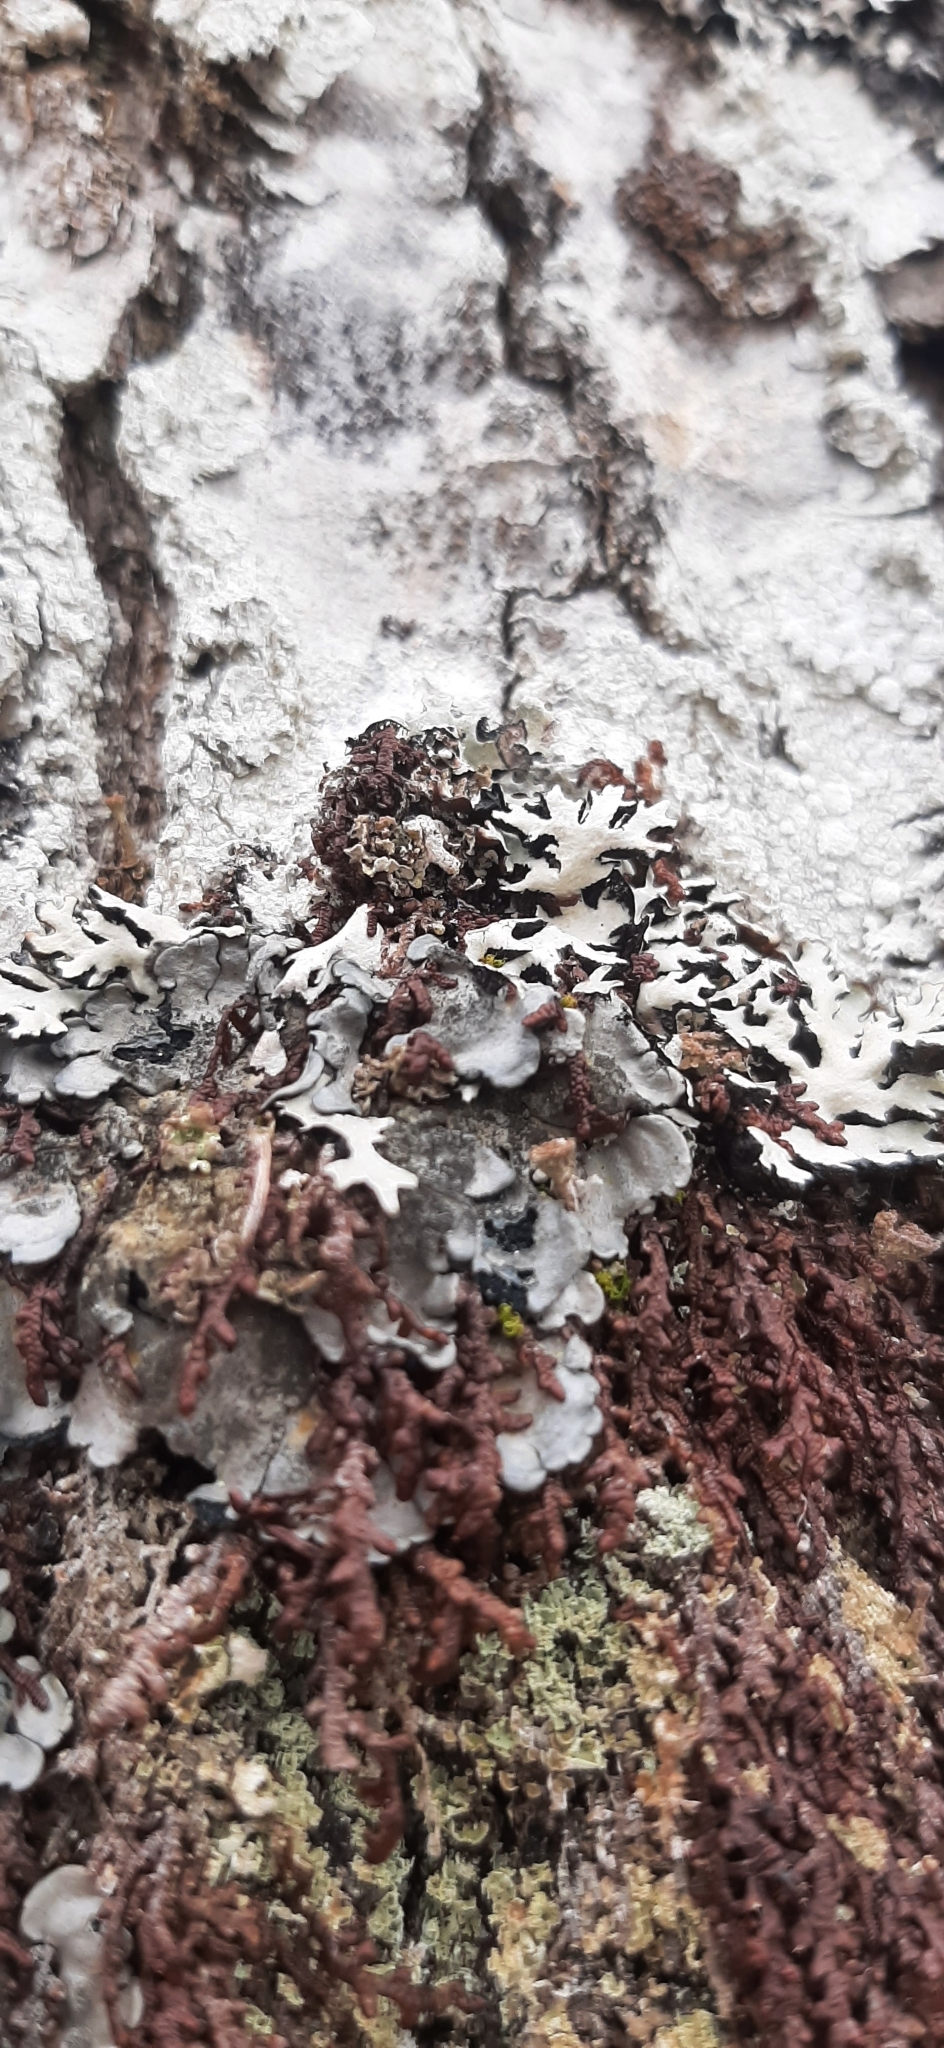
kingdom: Fungi
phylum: Ascomycota
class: Lecanoromycetes
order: Peltigerales
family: Coccocarpiaceae
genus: Coccocarpia
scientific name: Coccocarpia palmicola
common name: Salted shell lichen
